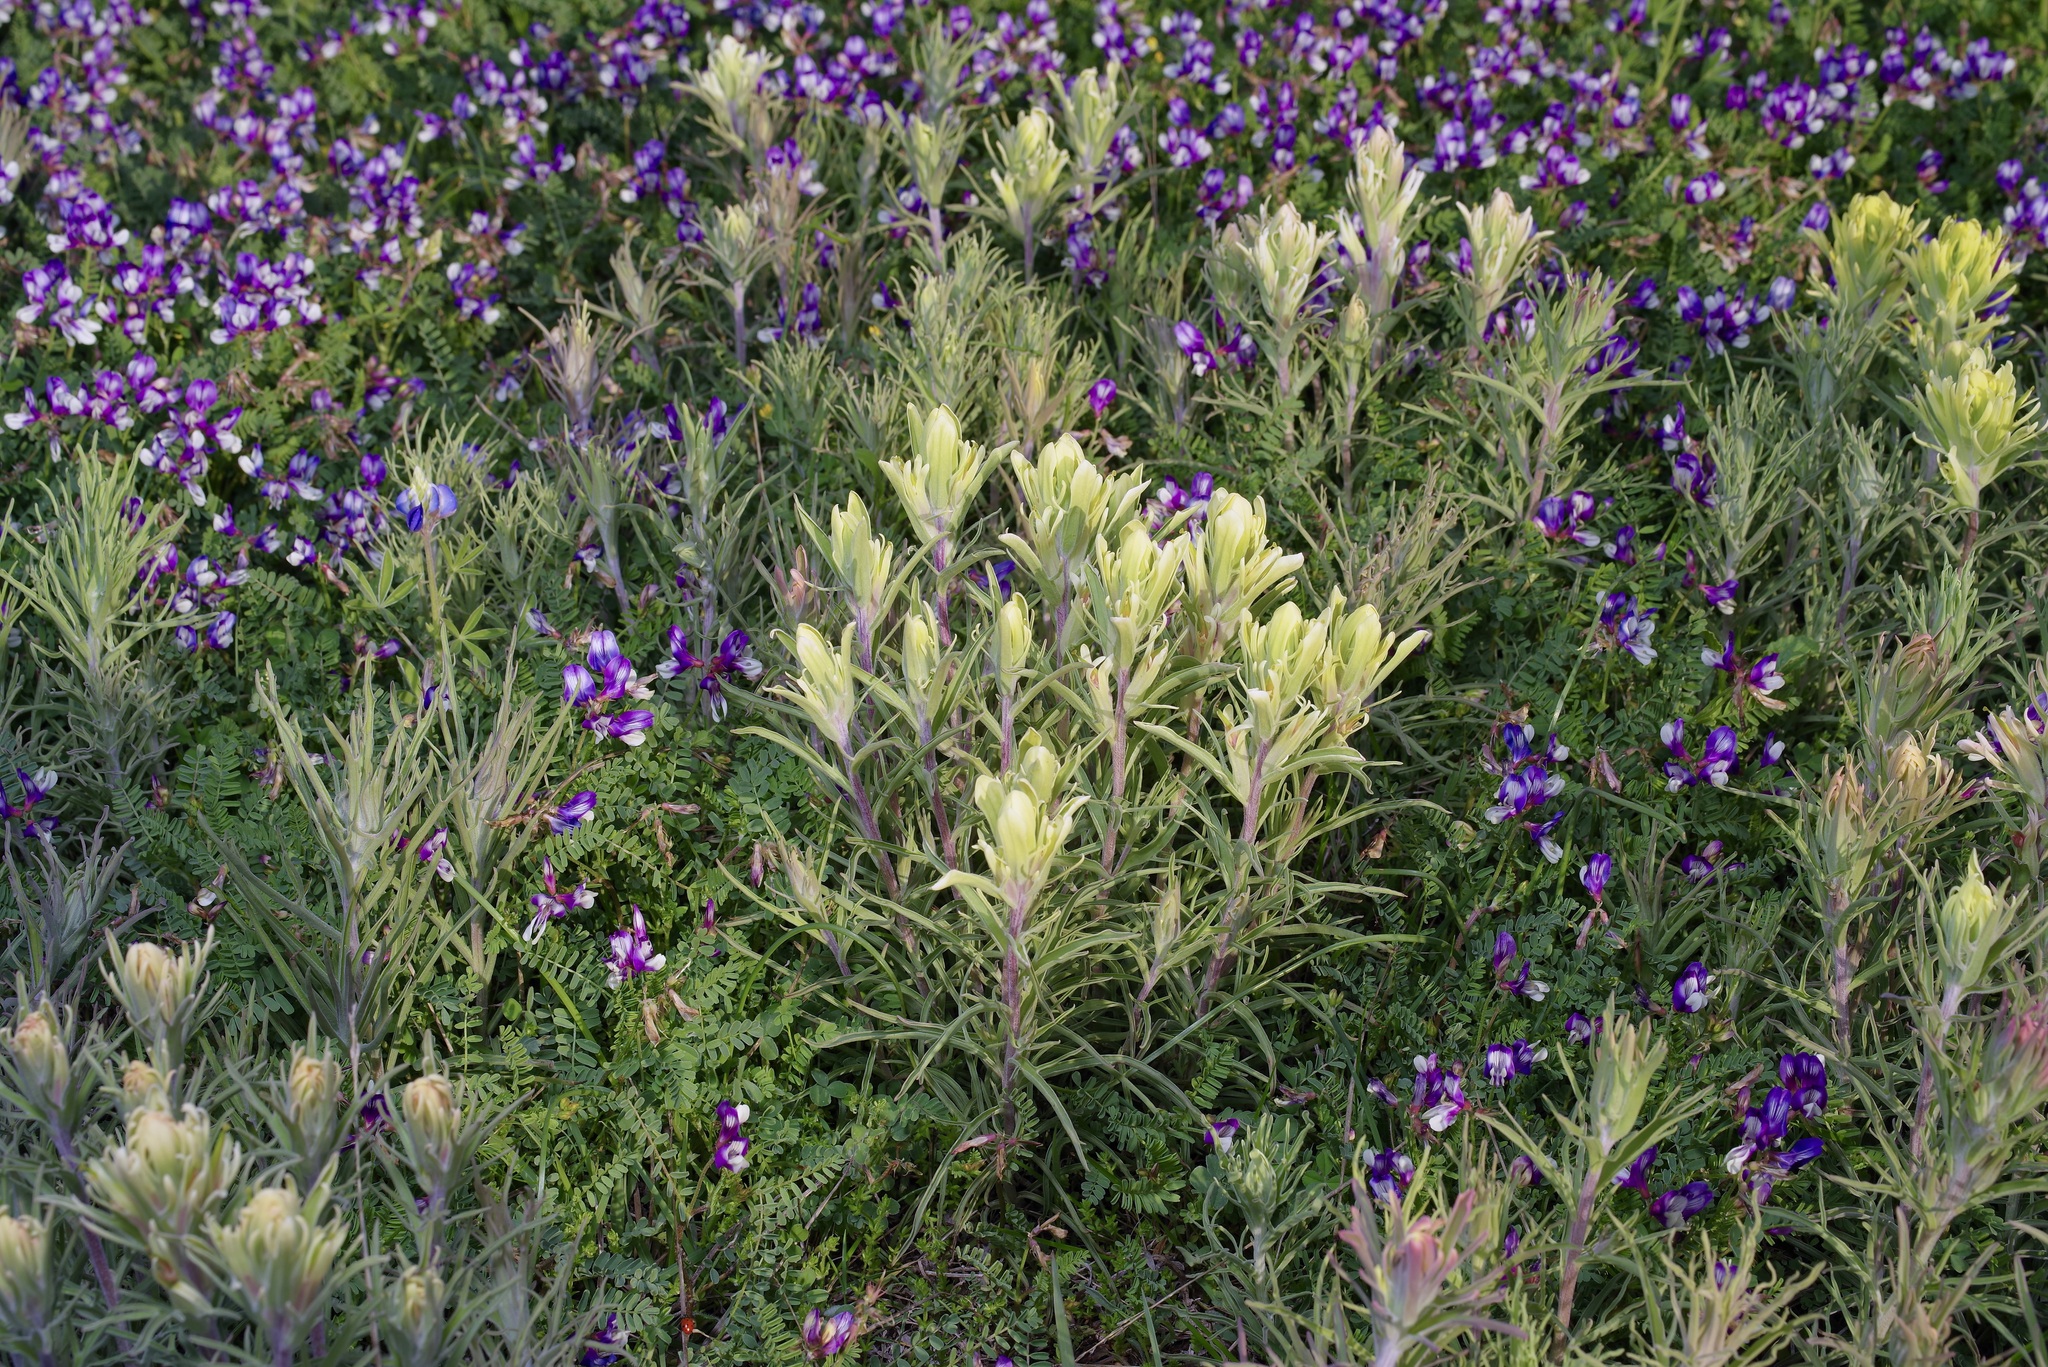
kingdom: Plantae
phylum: Tracheophyta
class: Magnoliopsida
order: Lamiales
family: Orobanchaceae
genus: Castilleja
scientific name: Castilleja citrina
